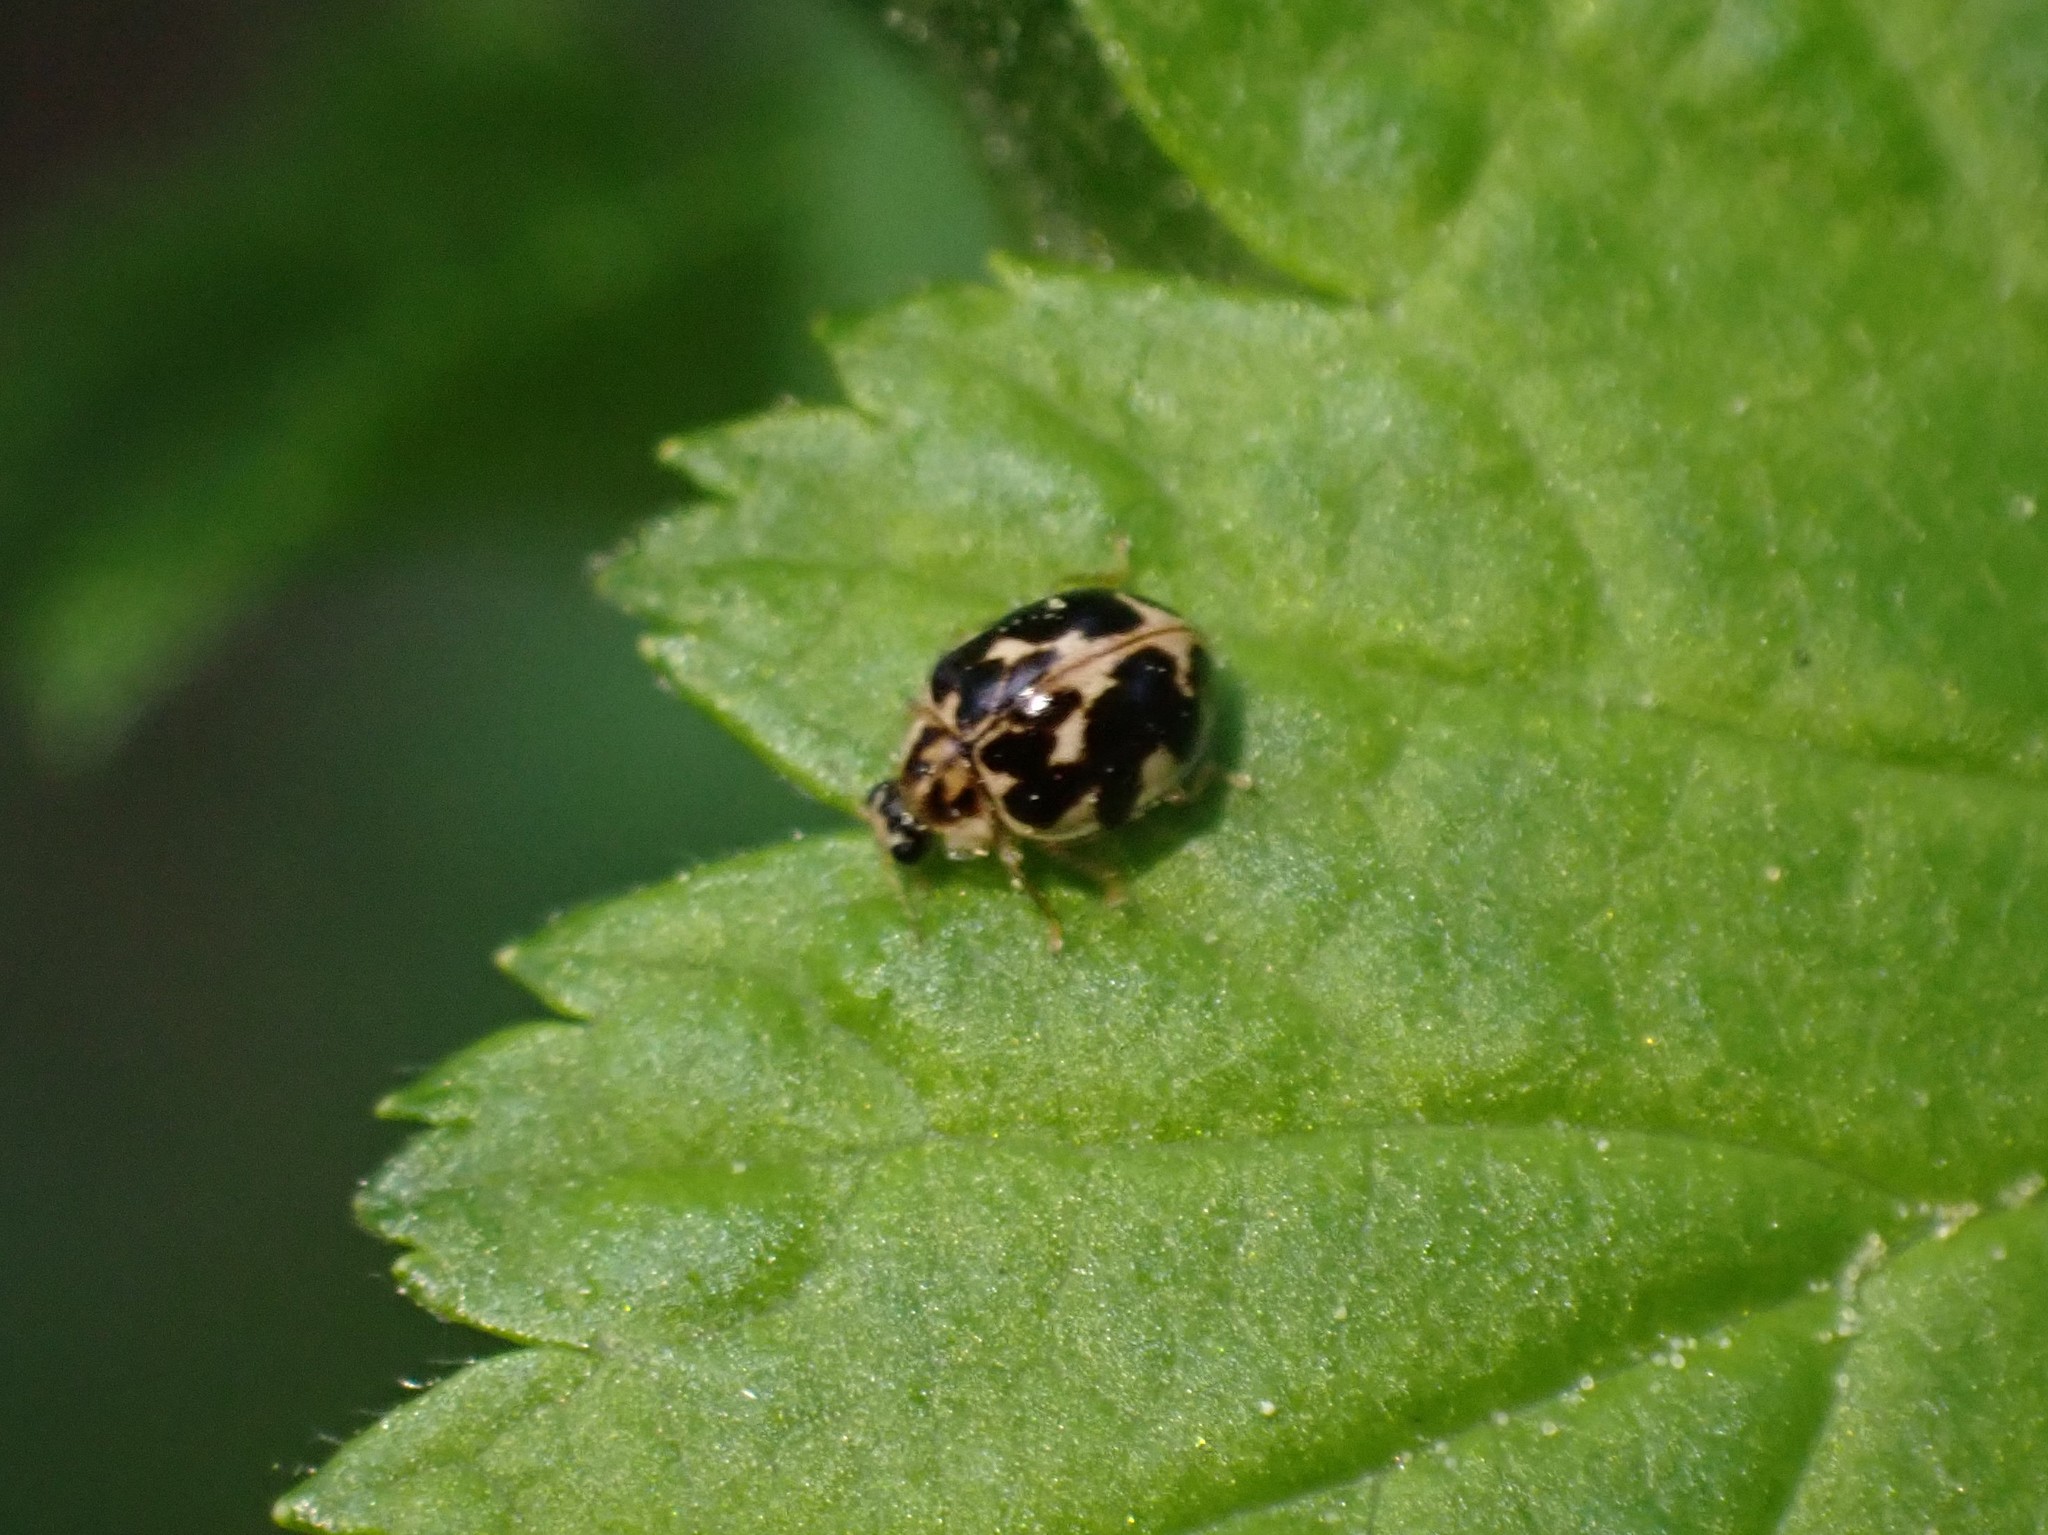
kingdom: Animalia
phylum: Arthropoda
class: Insecta
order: Coleoptera
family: Coccinellidae
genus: Psyllobora
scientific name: Psyllobora vigintimaculata
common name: Ladybird beetle
